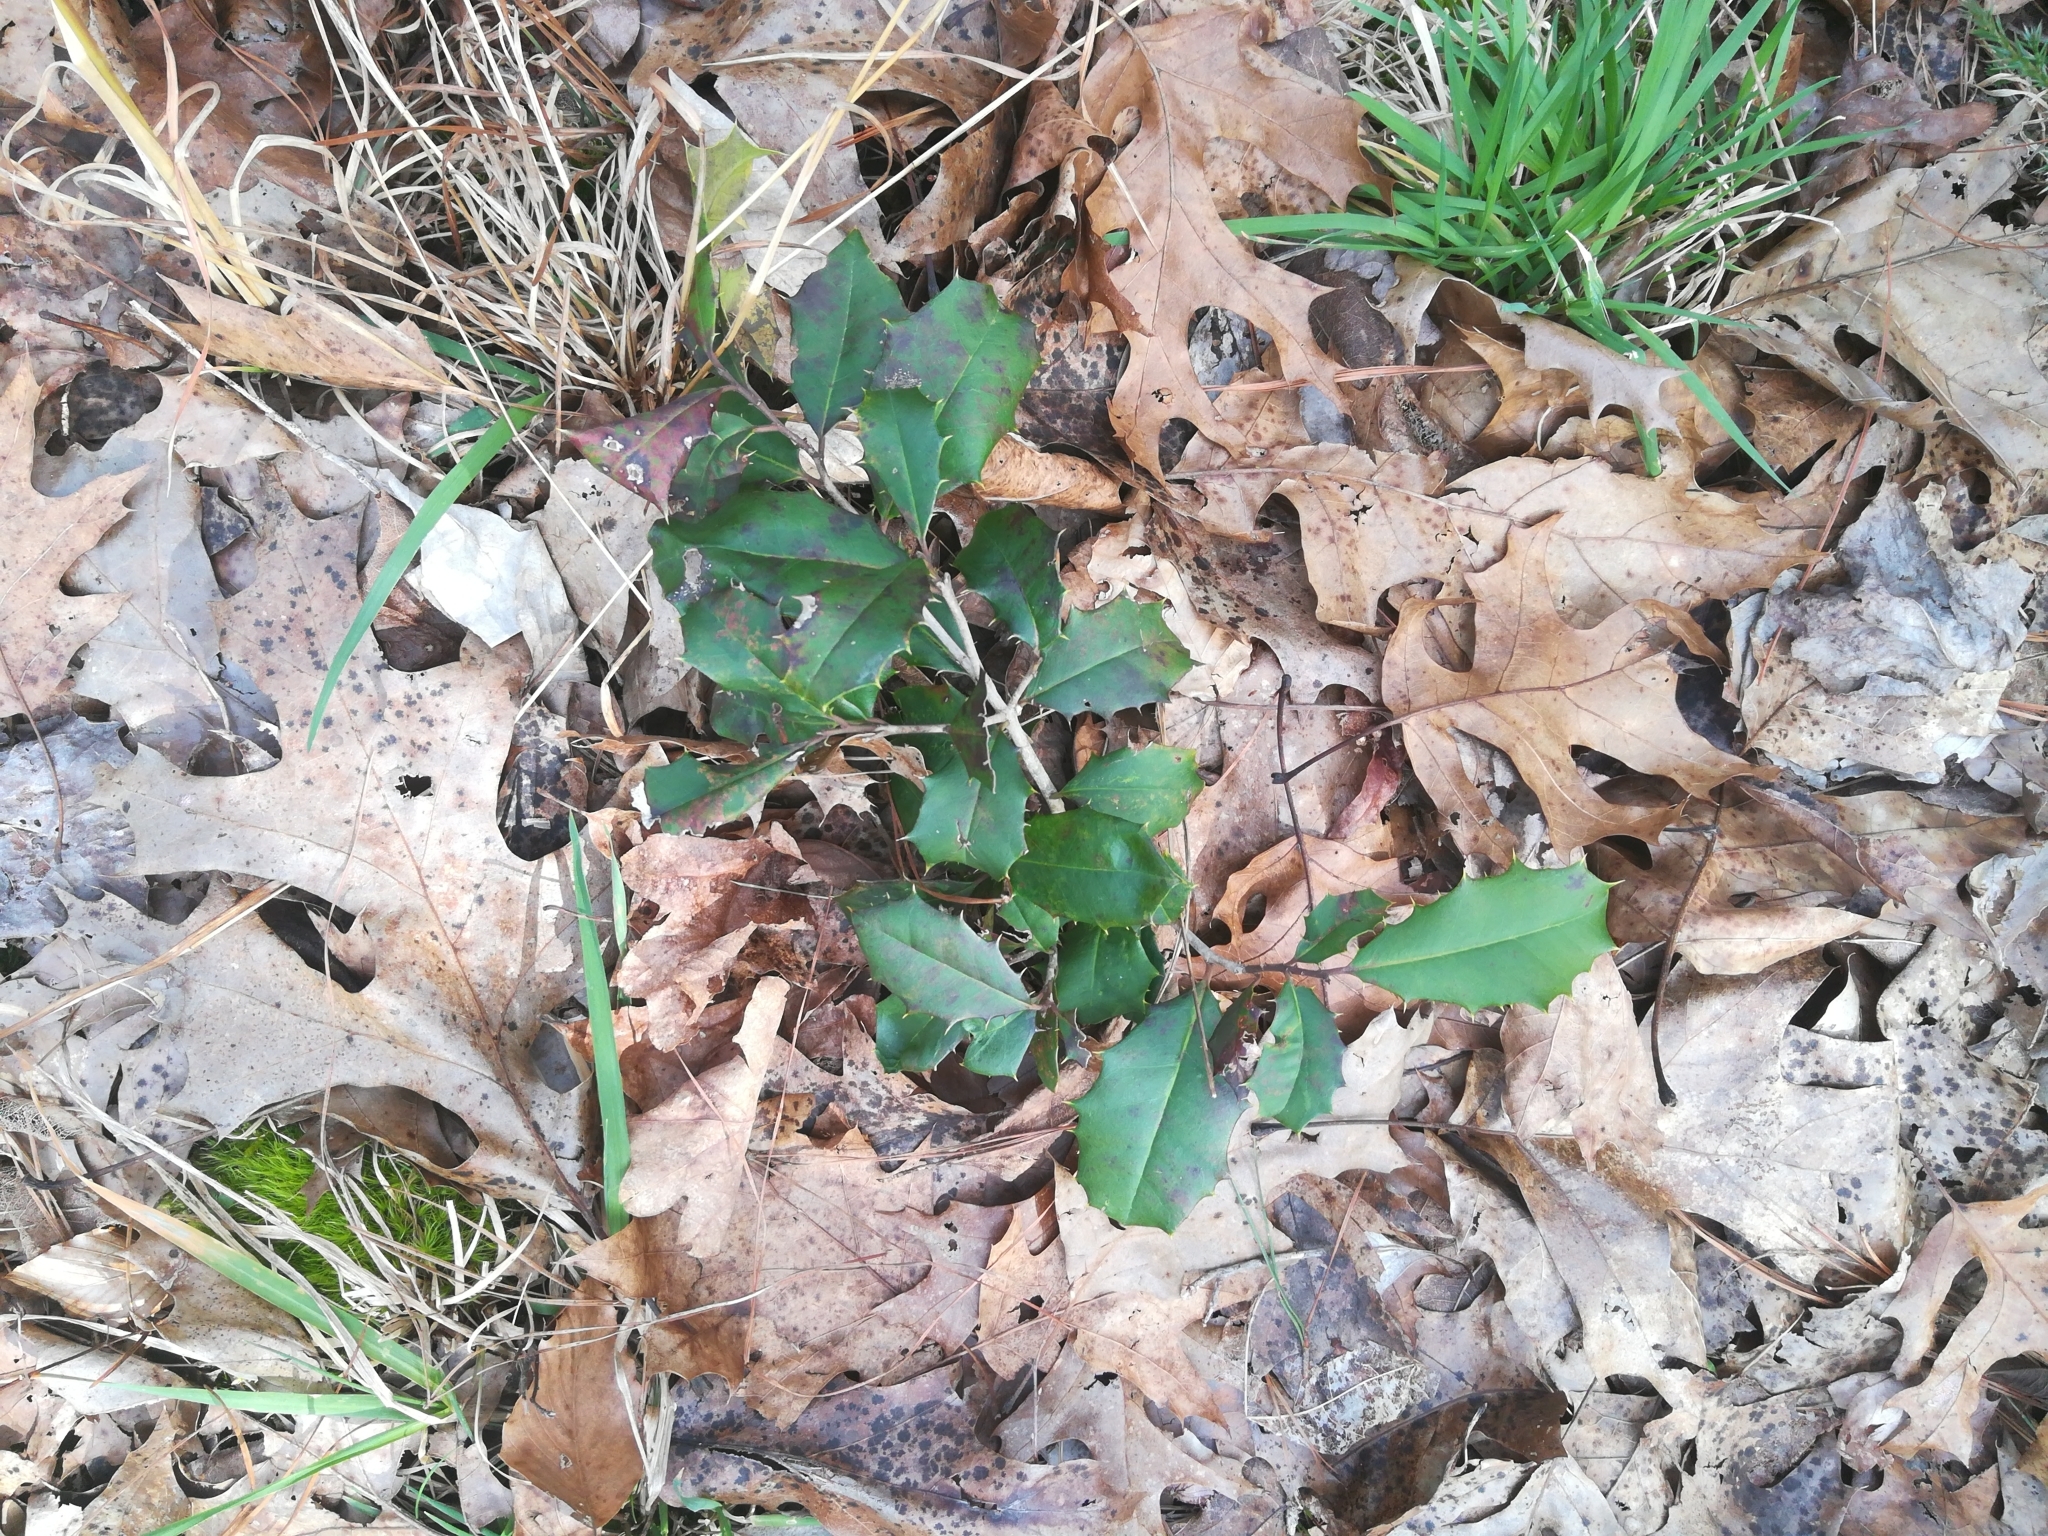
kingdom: Plantae
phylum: Tracheophyta
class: Magnoliopsida
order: Aquifoliales
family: Aquifoliaceae
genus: Ilex
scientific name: Ilex opaca
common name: American holly
